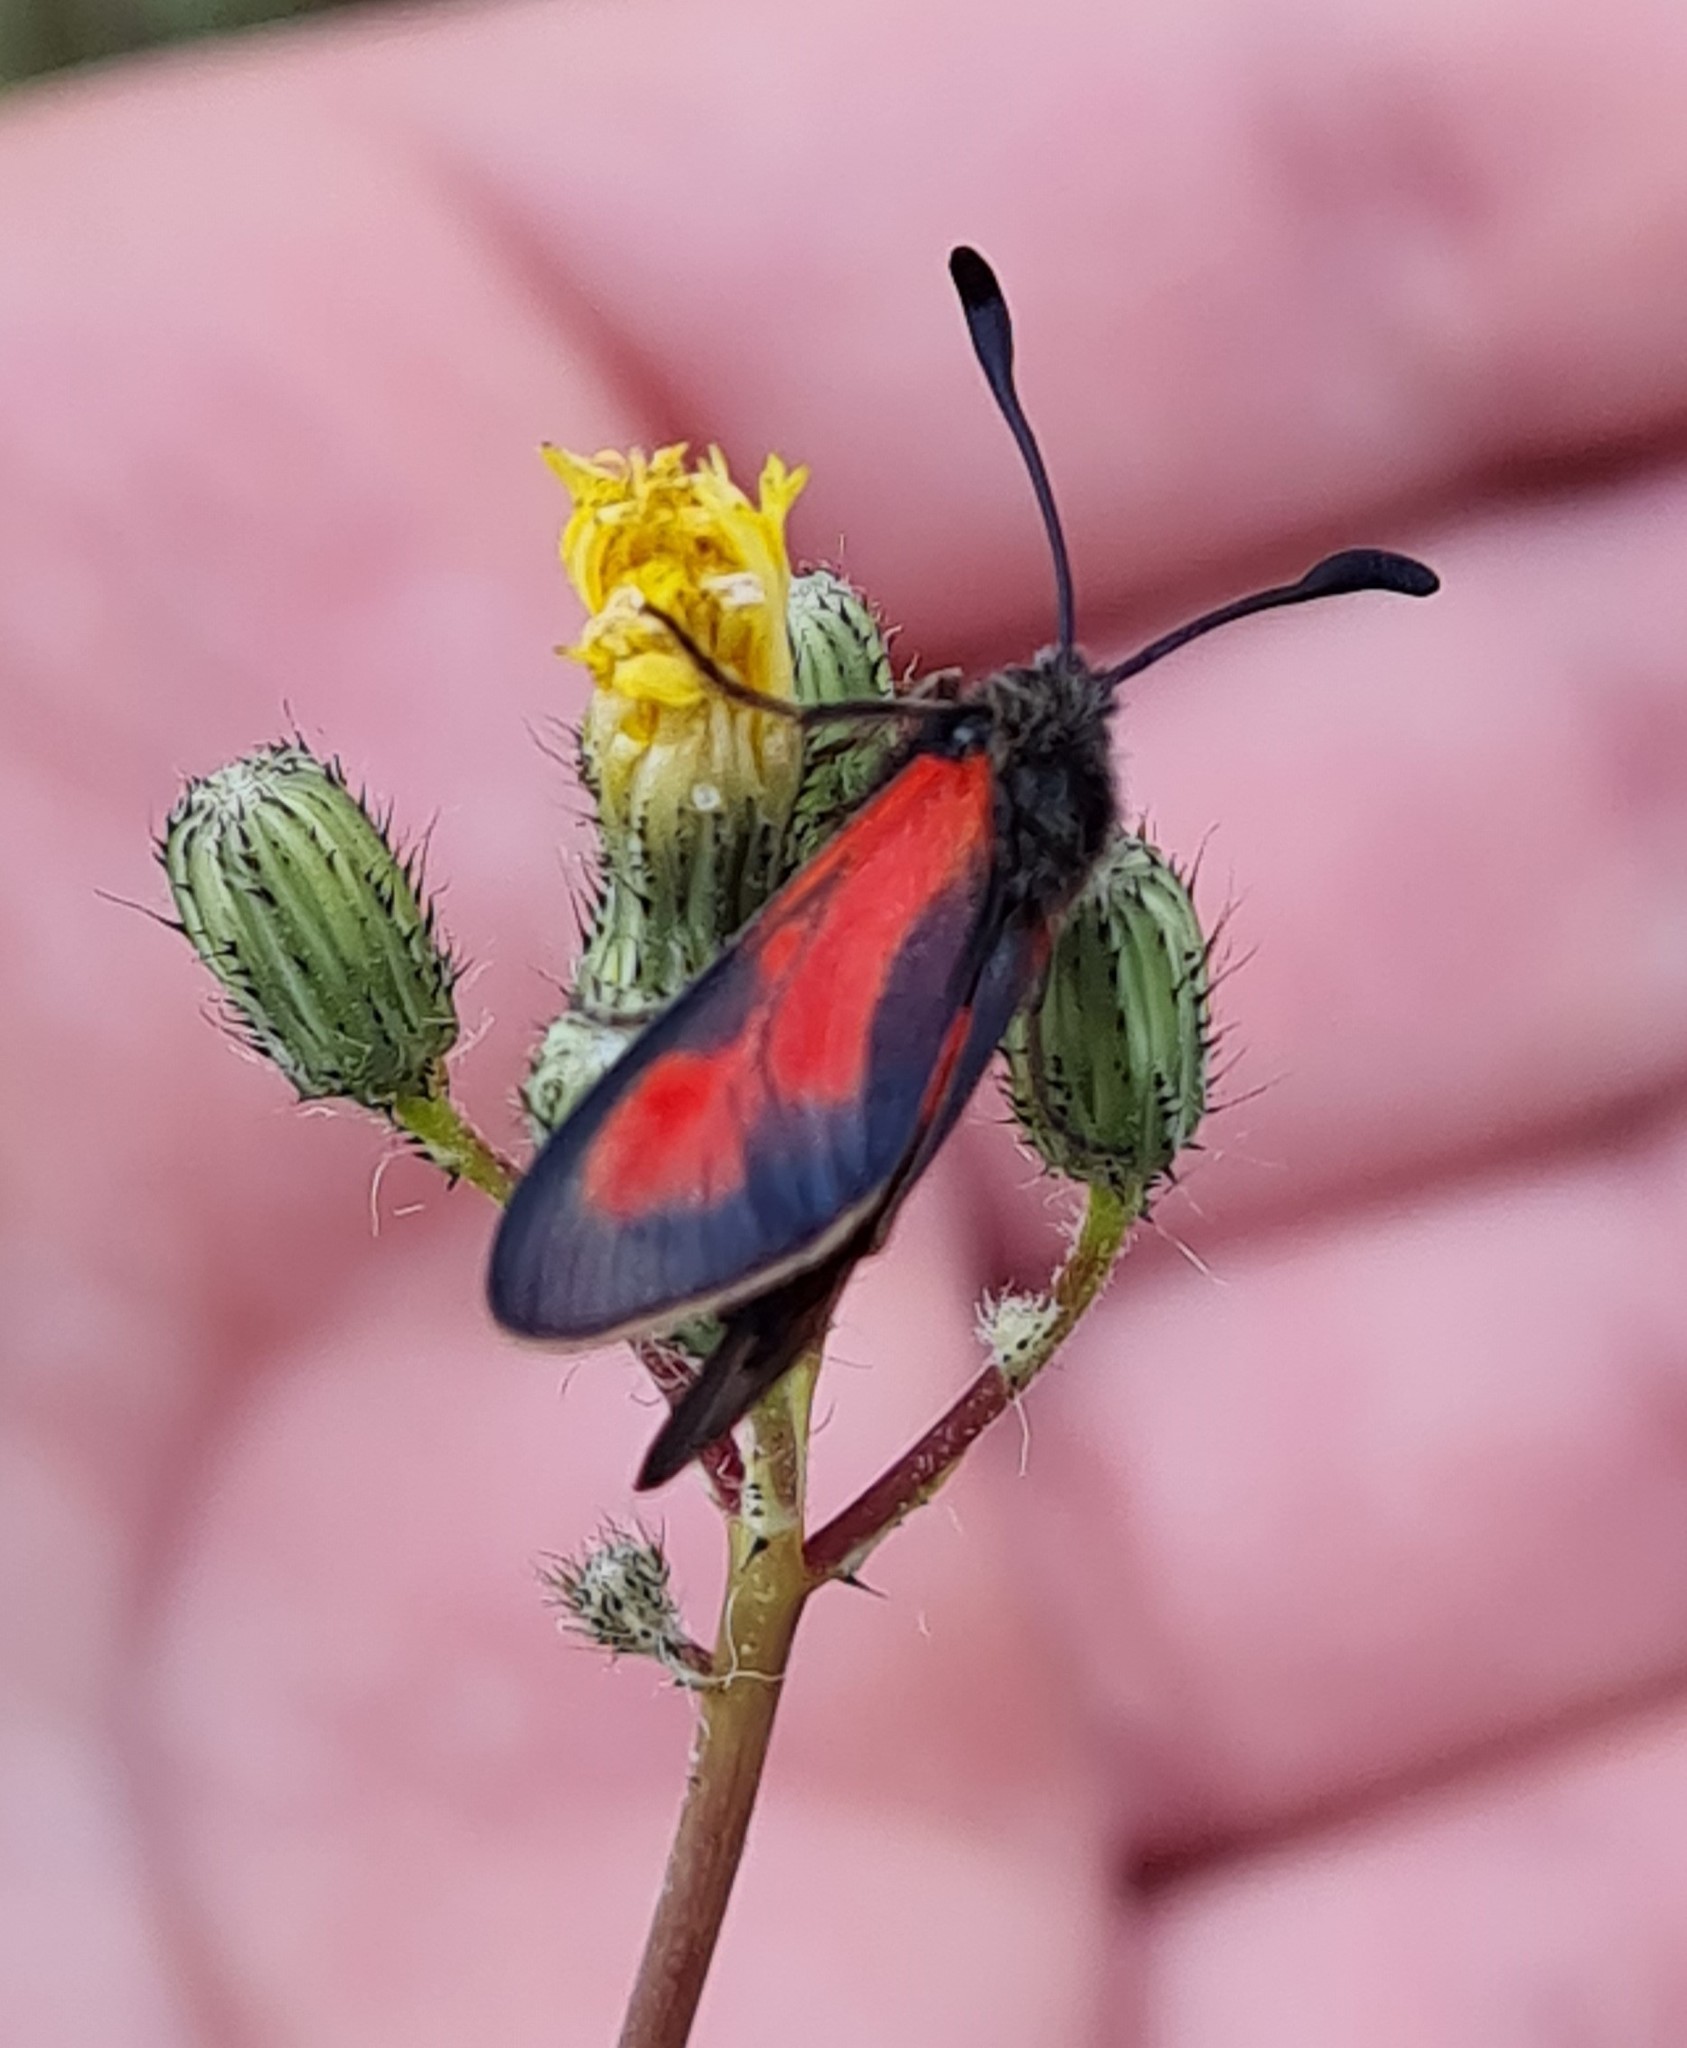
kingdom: Animalia
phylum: Arthropoda
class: Insecta
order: Lepidoptera
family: Zygaenidae
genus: Zygaena
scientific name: Zygaena punctum
